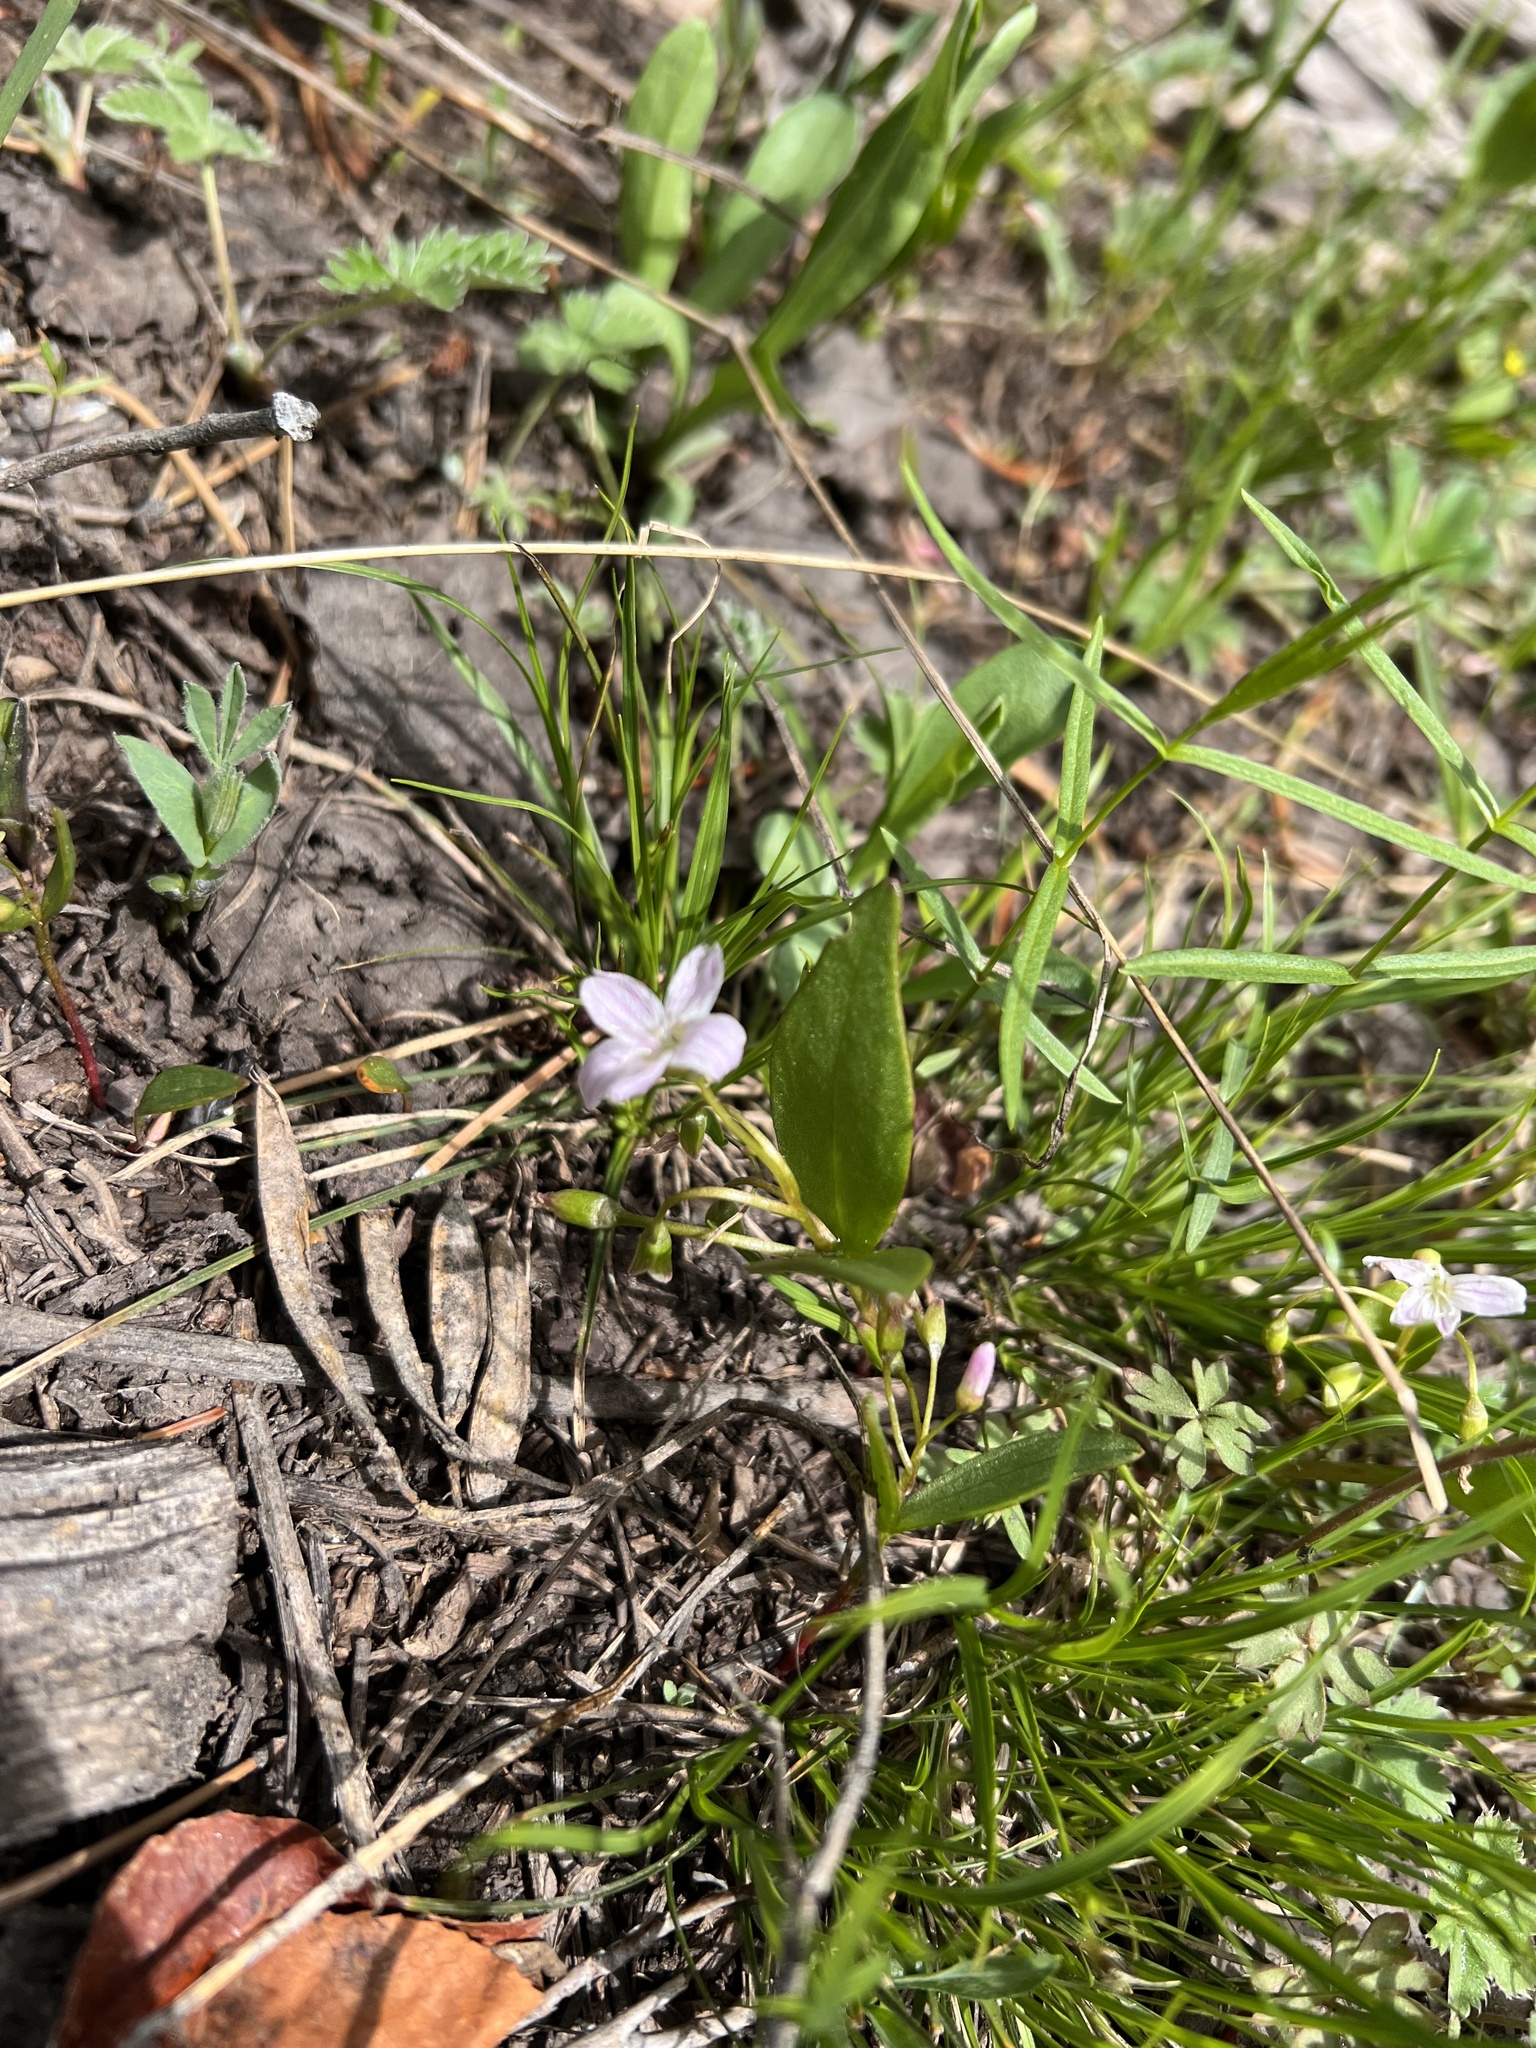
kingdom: Plantae
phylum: Tracheophyta
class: Magnoliopsida
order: Caryophyllales
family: Montiaceae
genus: Claytonia
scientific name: Claytonia lanceolata
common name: Western spring-beauty
